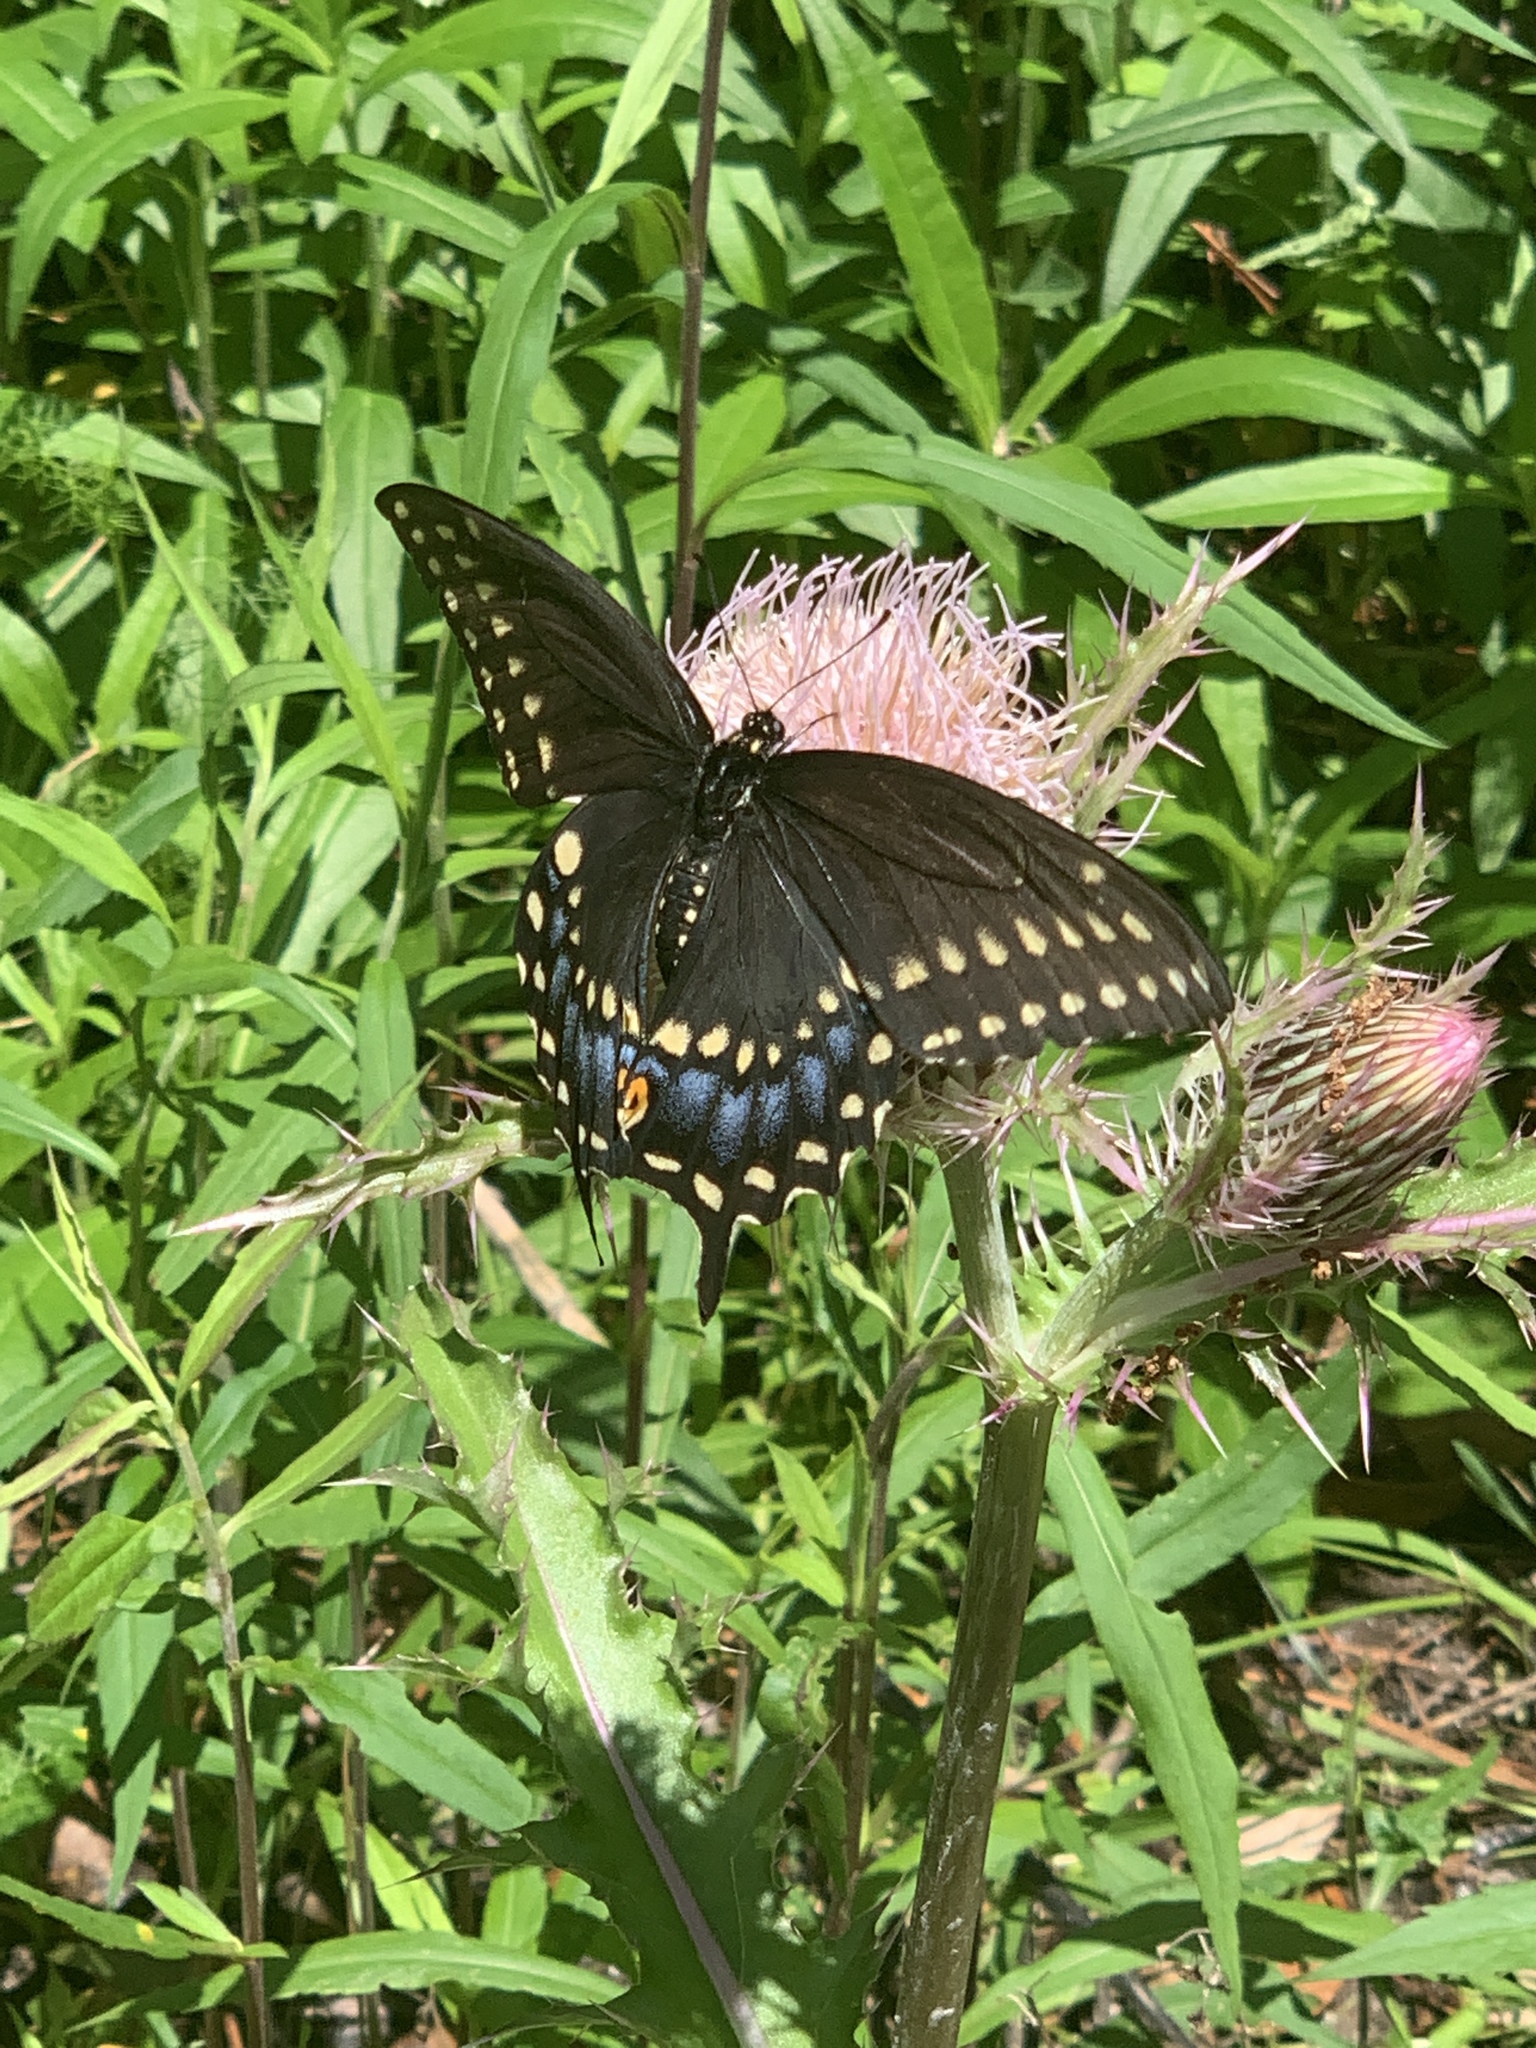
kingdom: Animalia
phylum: Arthropoda
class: Insecta
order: Lepidoptera
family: Papilionidae
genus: Papilio
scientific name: Papilio polyxenes
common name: Black swallowtail
